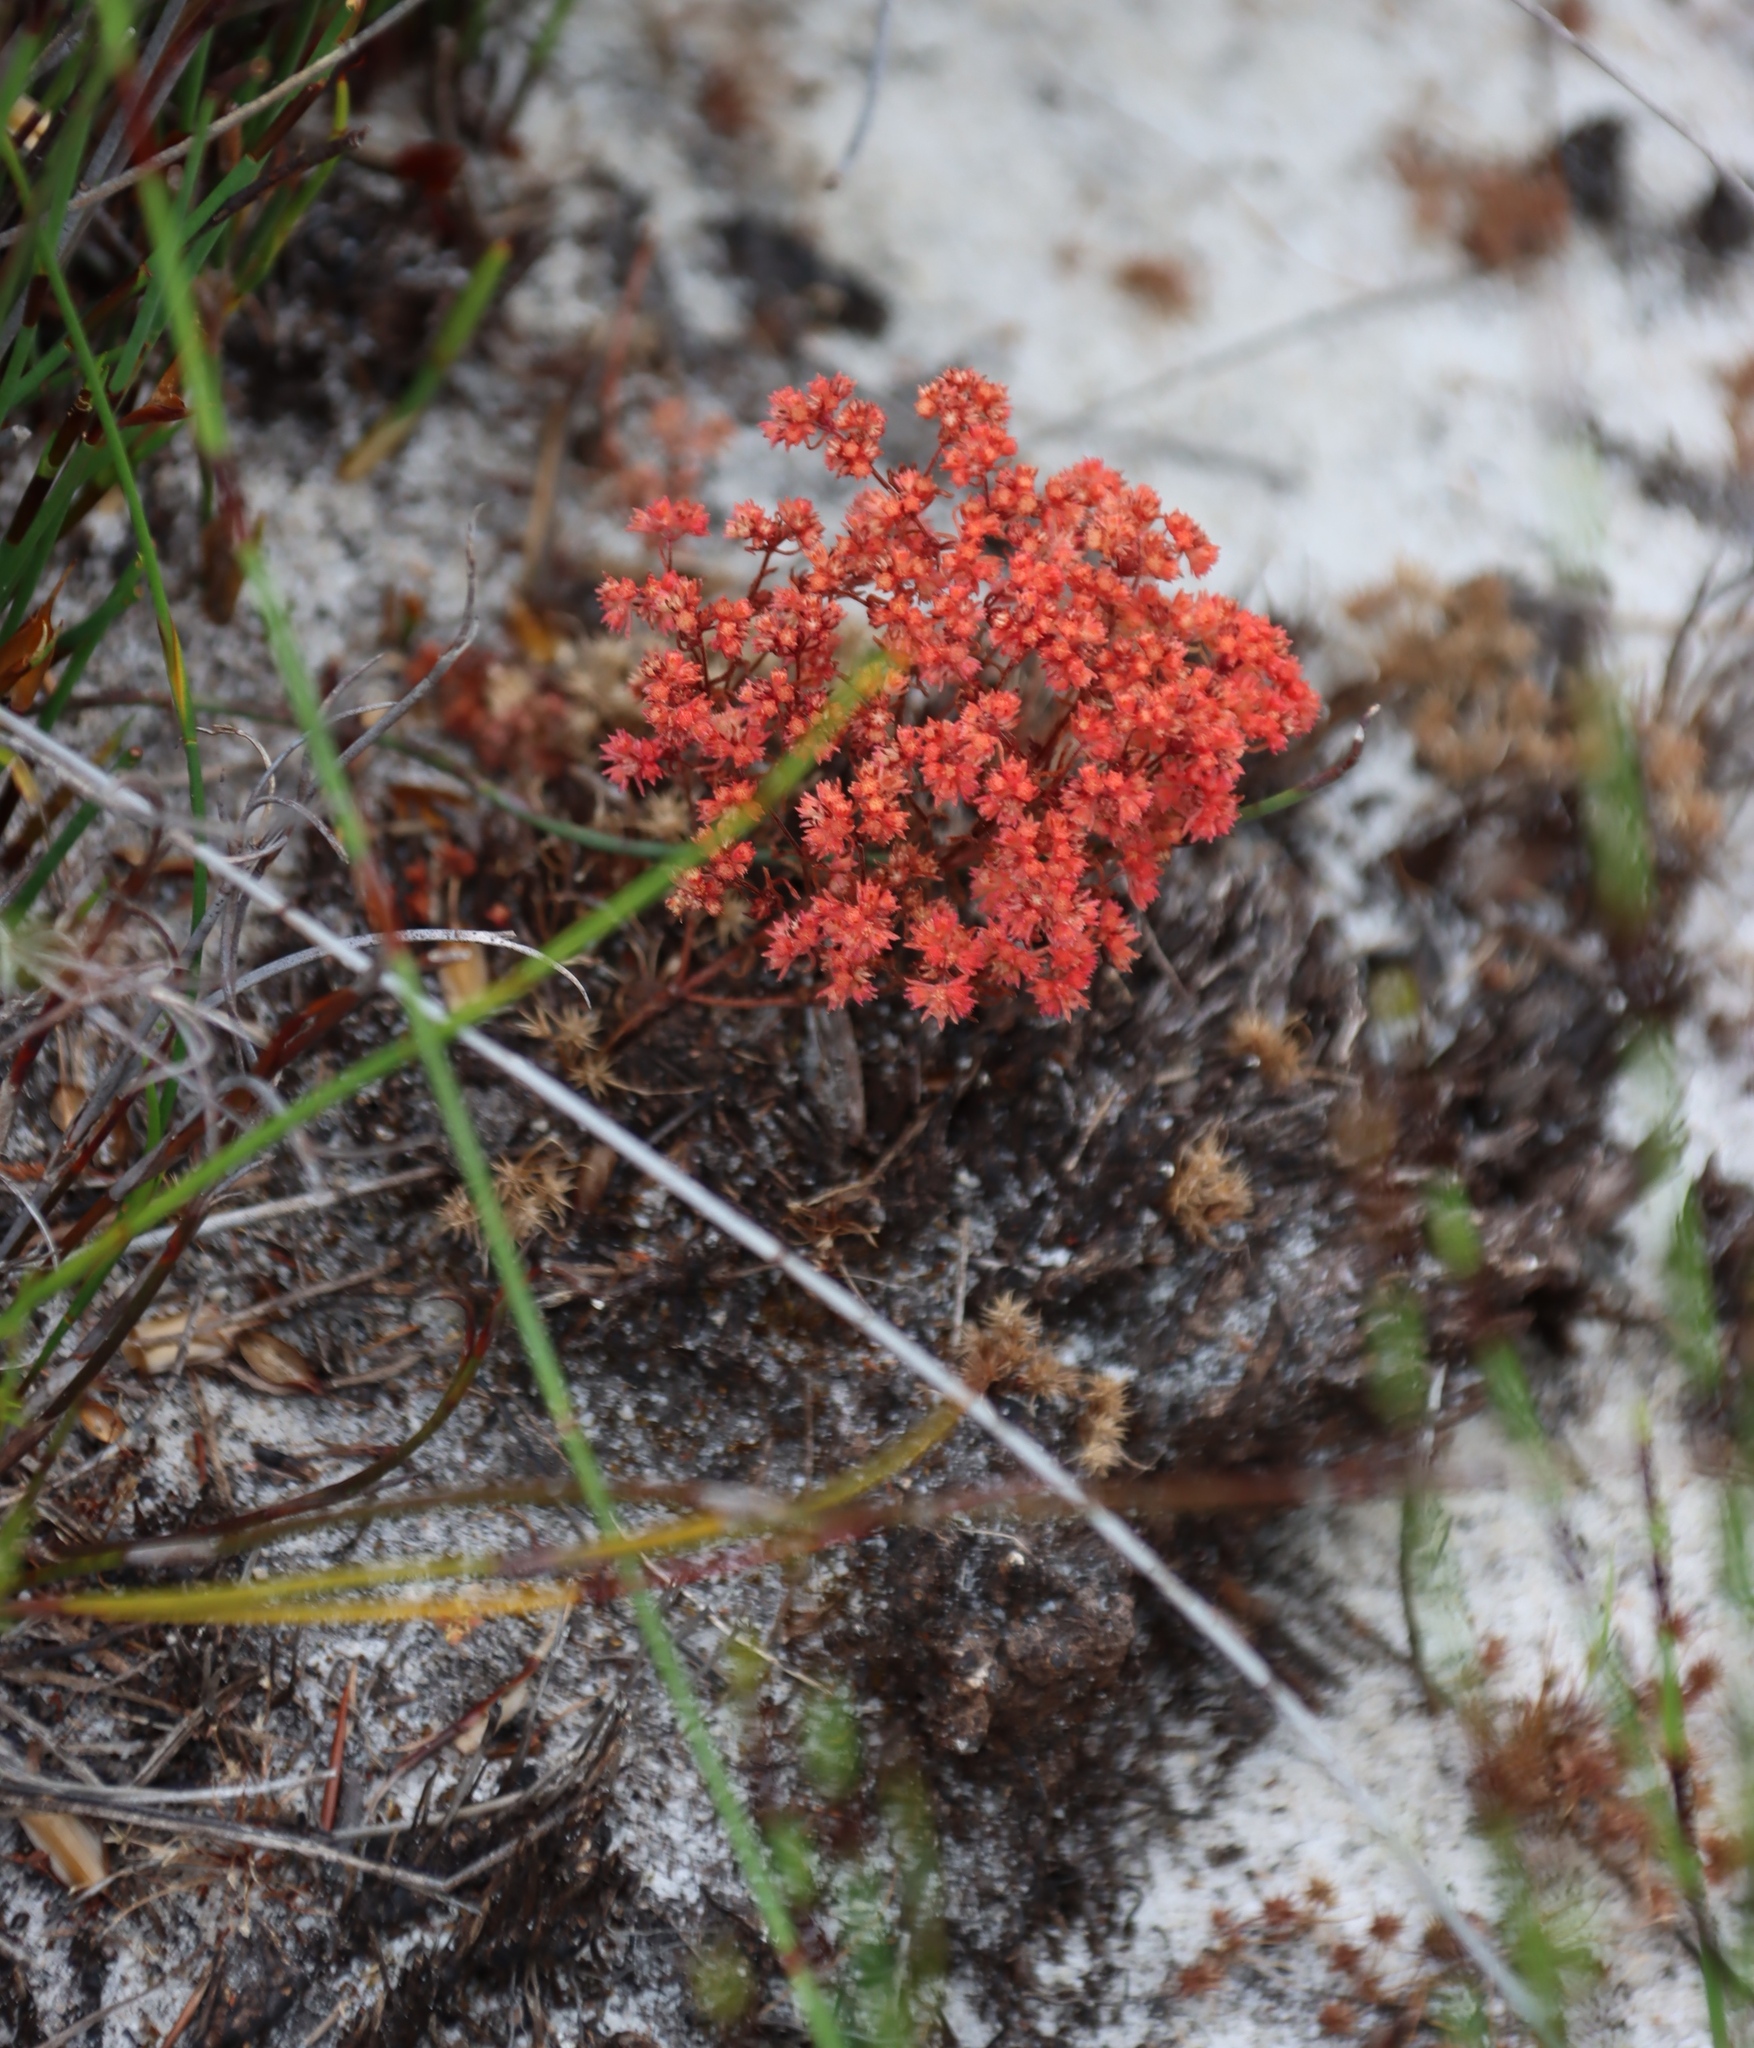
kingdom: Plantae
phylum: Tracheophyta
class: Magnoliopsida
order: Saxifragales
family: Crassulaceae
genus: Crassula
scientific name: Crassula glomerata
